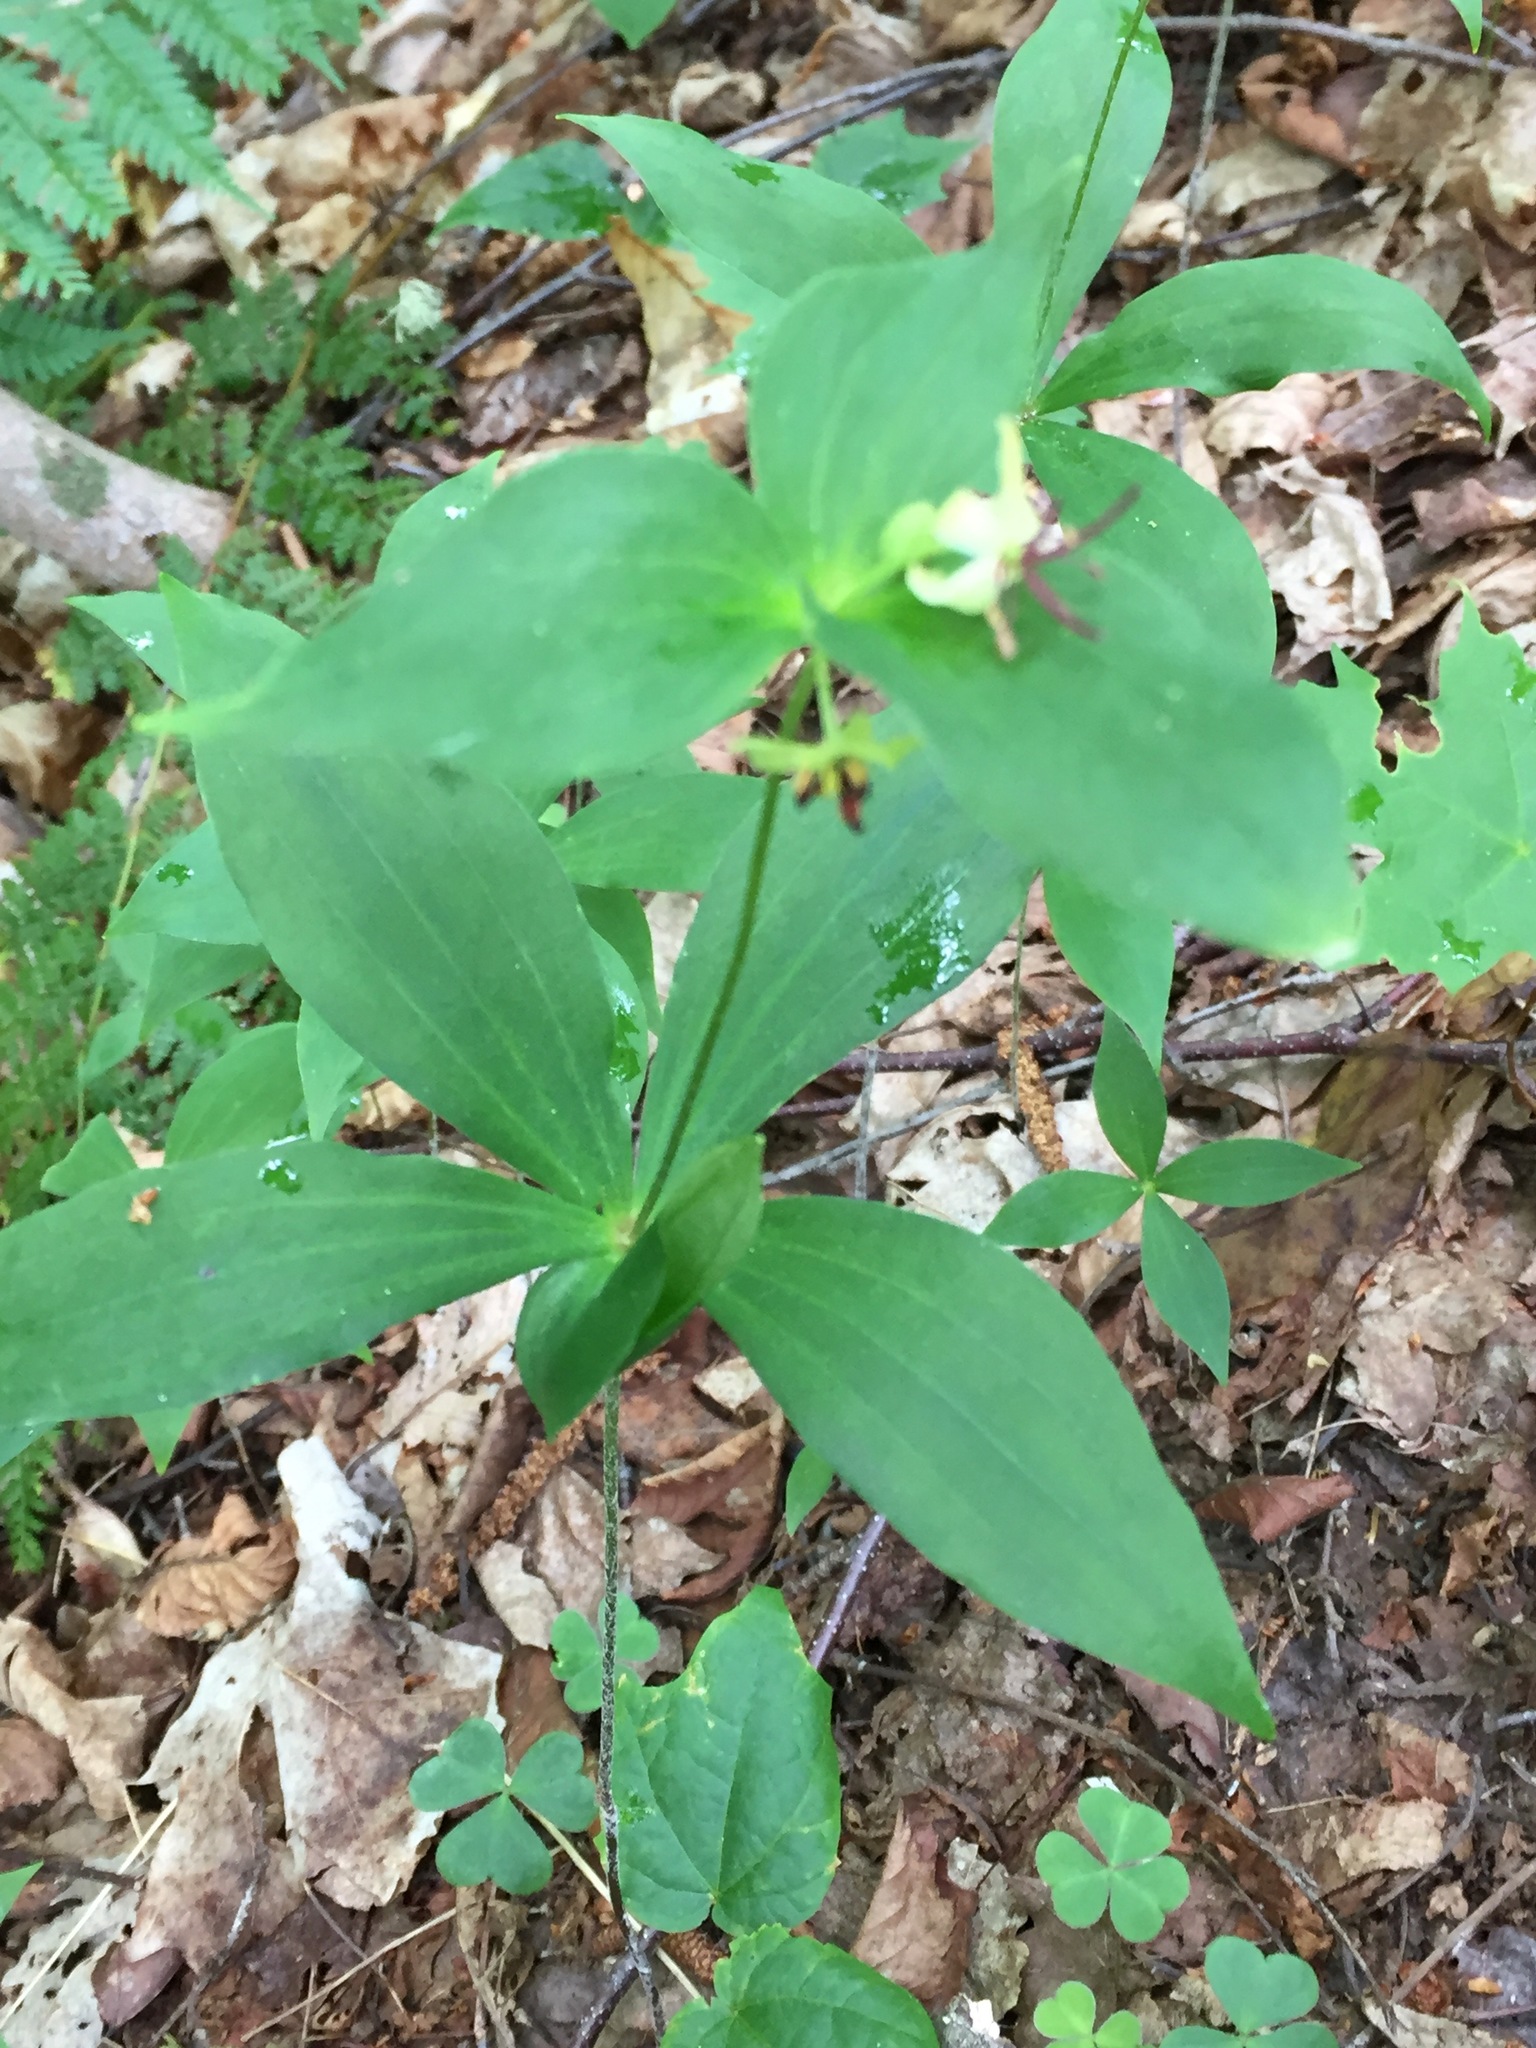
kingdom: Plantae
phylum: Tracheophyta
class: Liliopsida
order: Liliales
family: Liliaceae
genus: Medeola
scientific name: Medeola virginiana
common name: Indian cucumber-root
